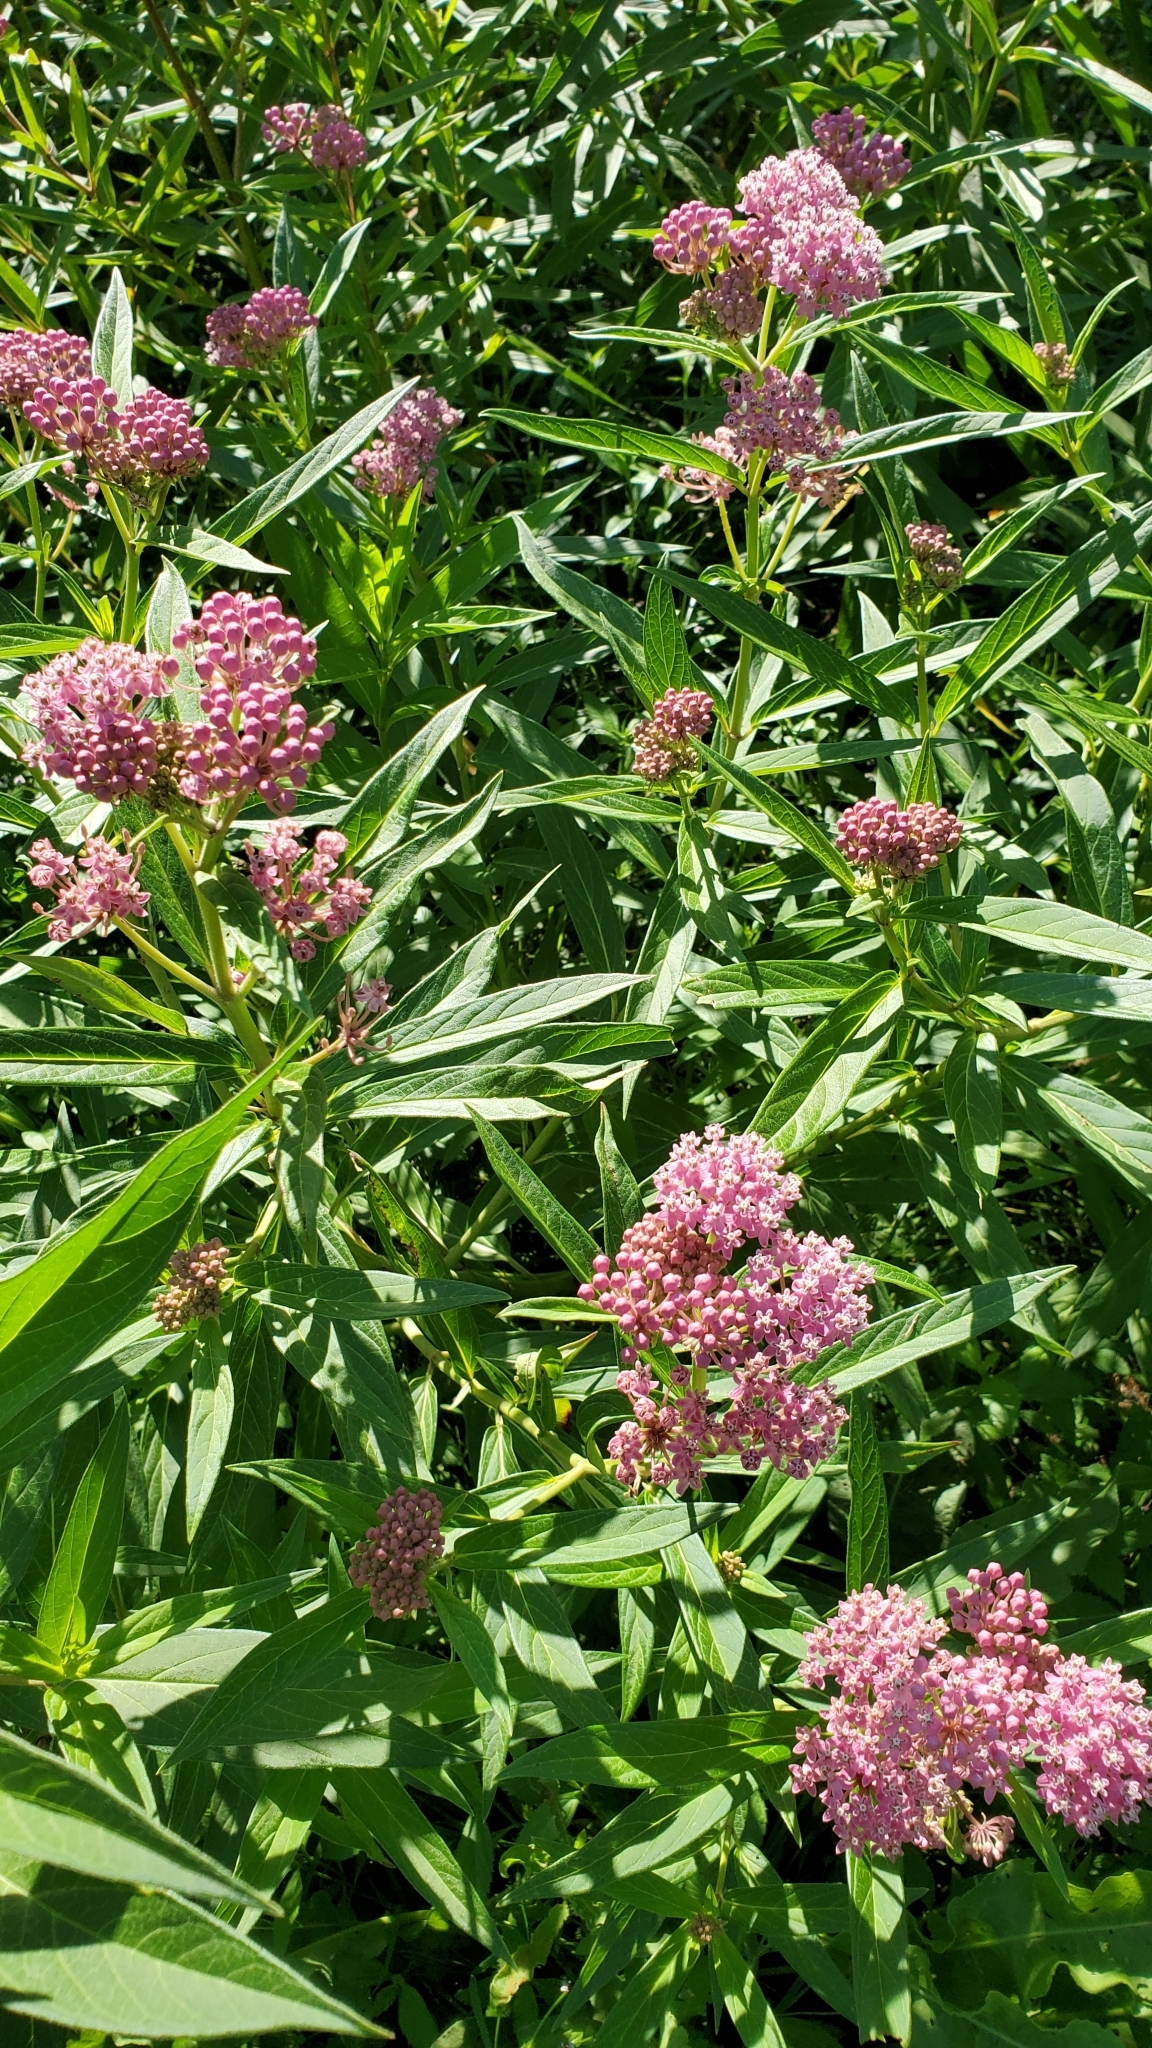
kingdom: Plantae
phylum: Tracheophyta
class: Magnoliopsida
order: Gentianales
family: Apocynaceae
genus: Asclepias
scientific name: Asclepias incarnata
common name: Swamp milkweed
